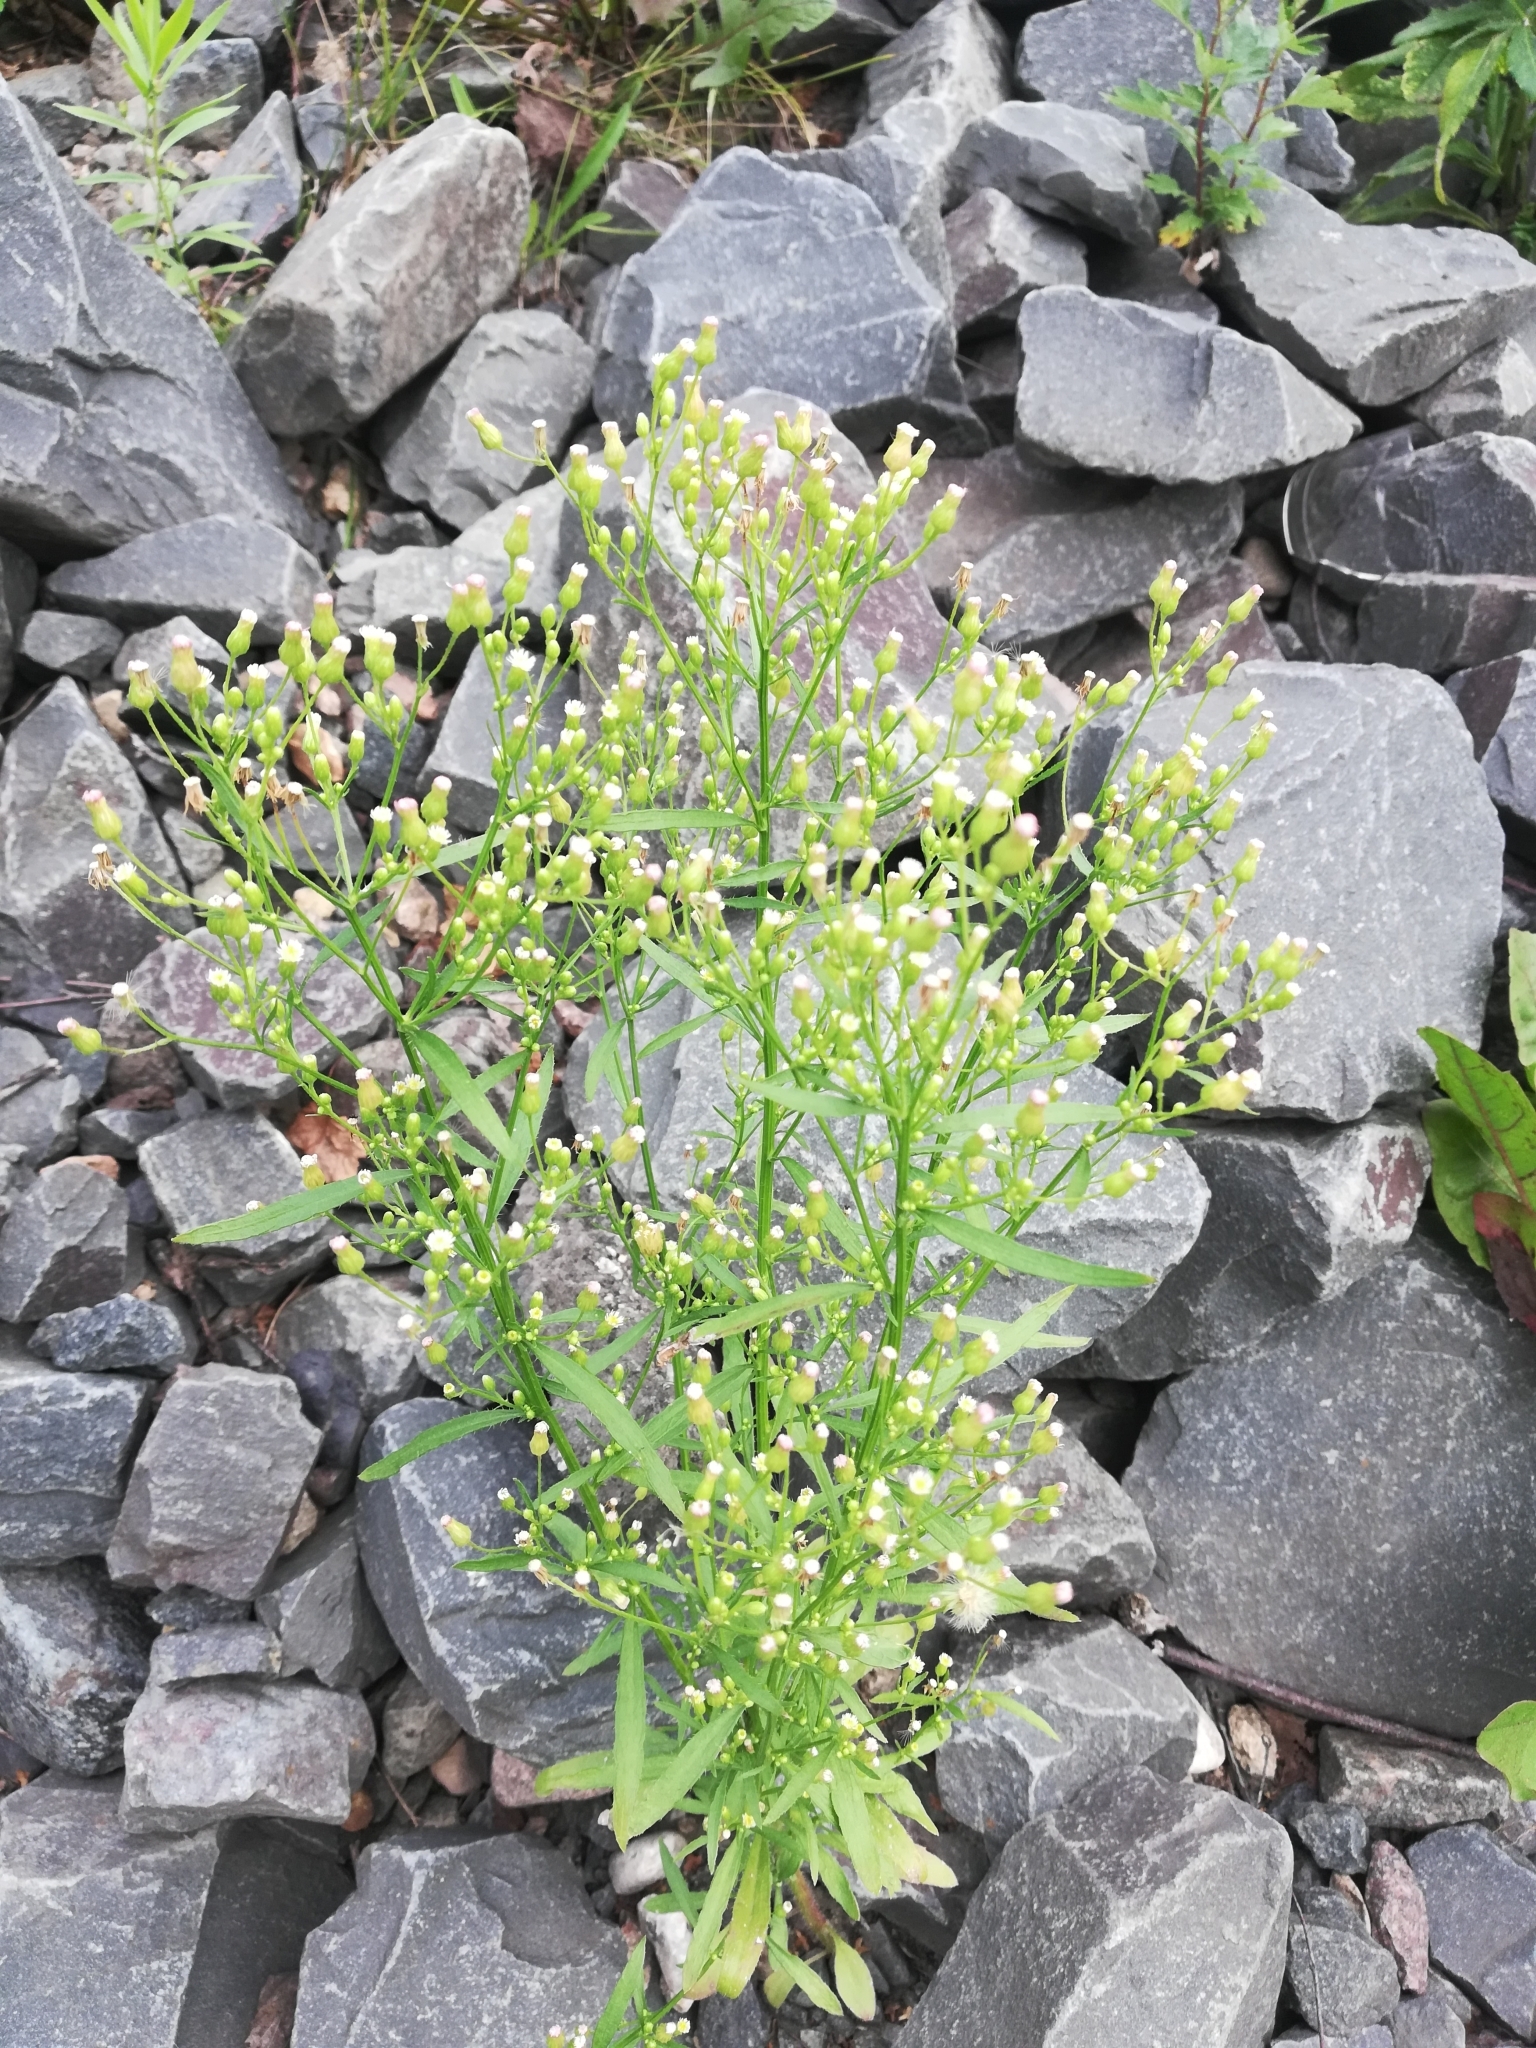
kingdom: Plantae
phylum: Tracheophyta
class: Magnoliopsida
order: Asterales
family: Asteraceae
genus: Erigeron
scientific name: Erigeron canadensis
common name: Canadian fleabane
